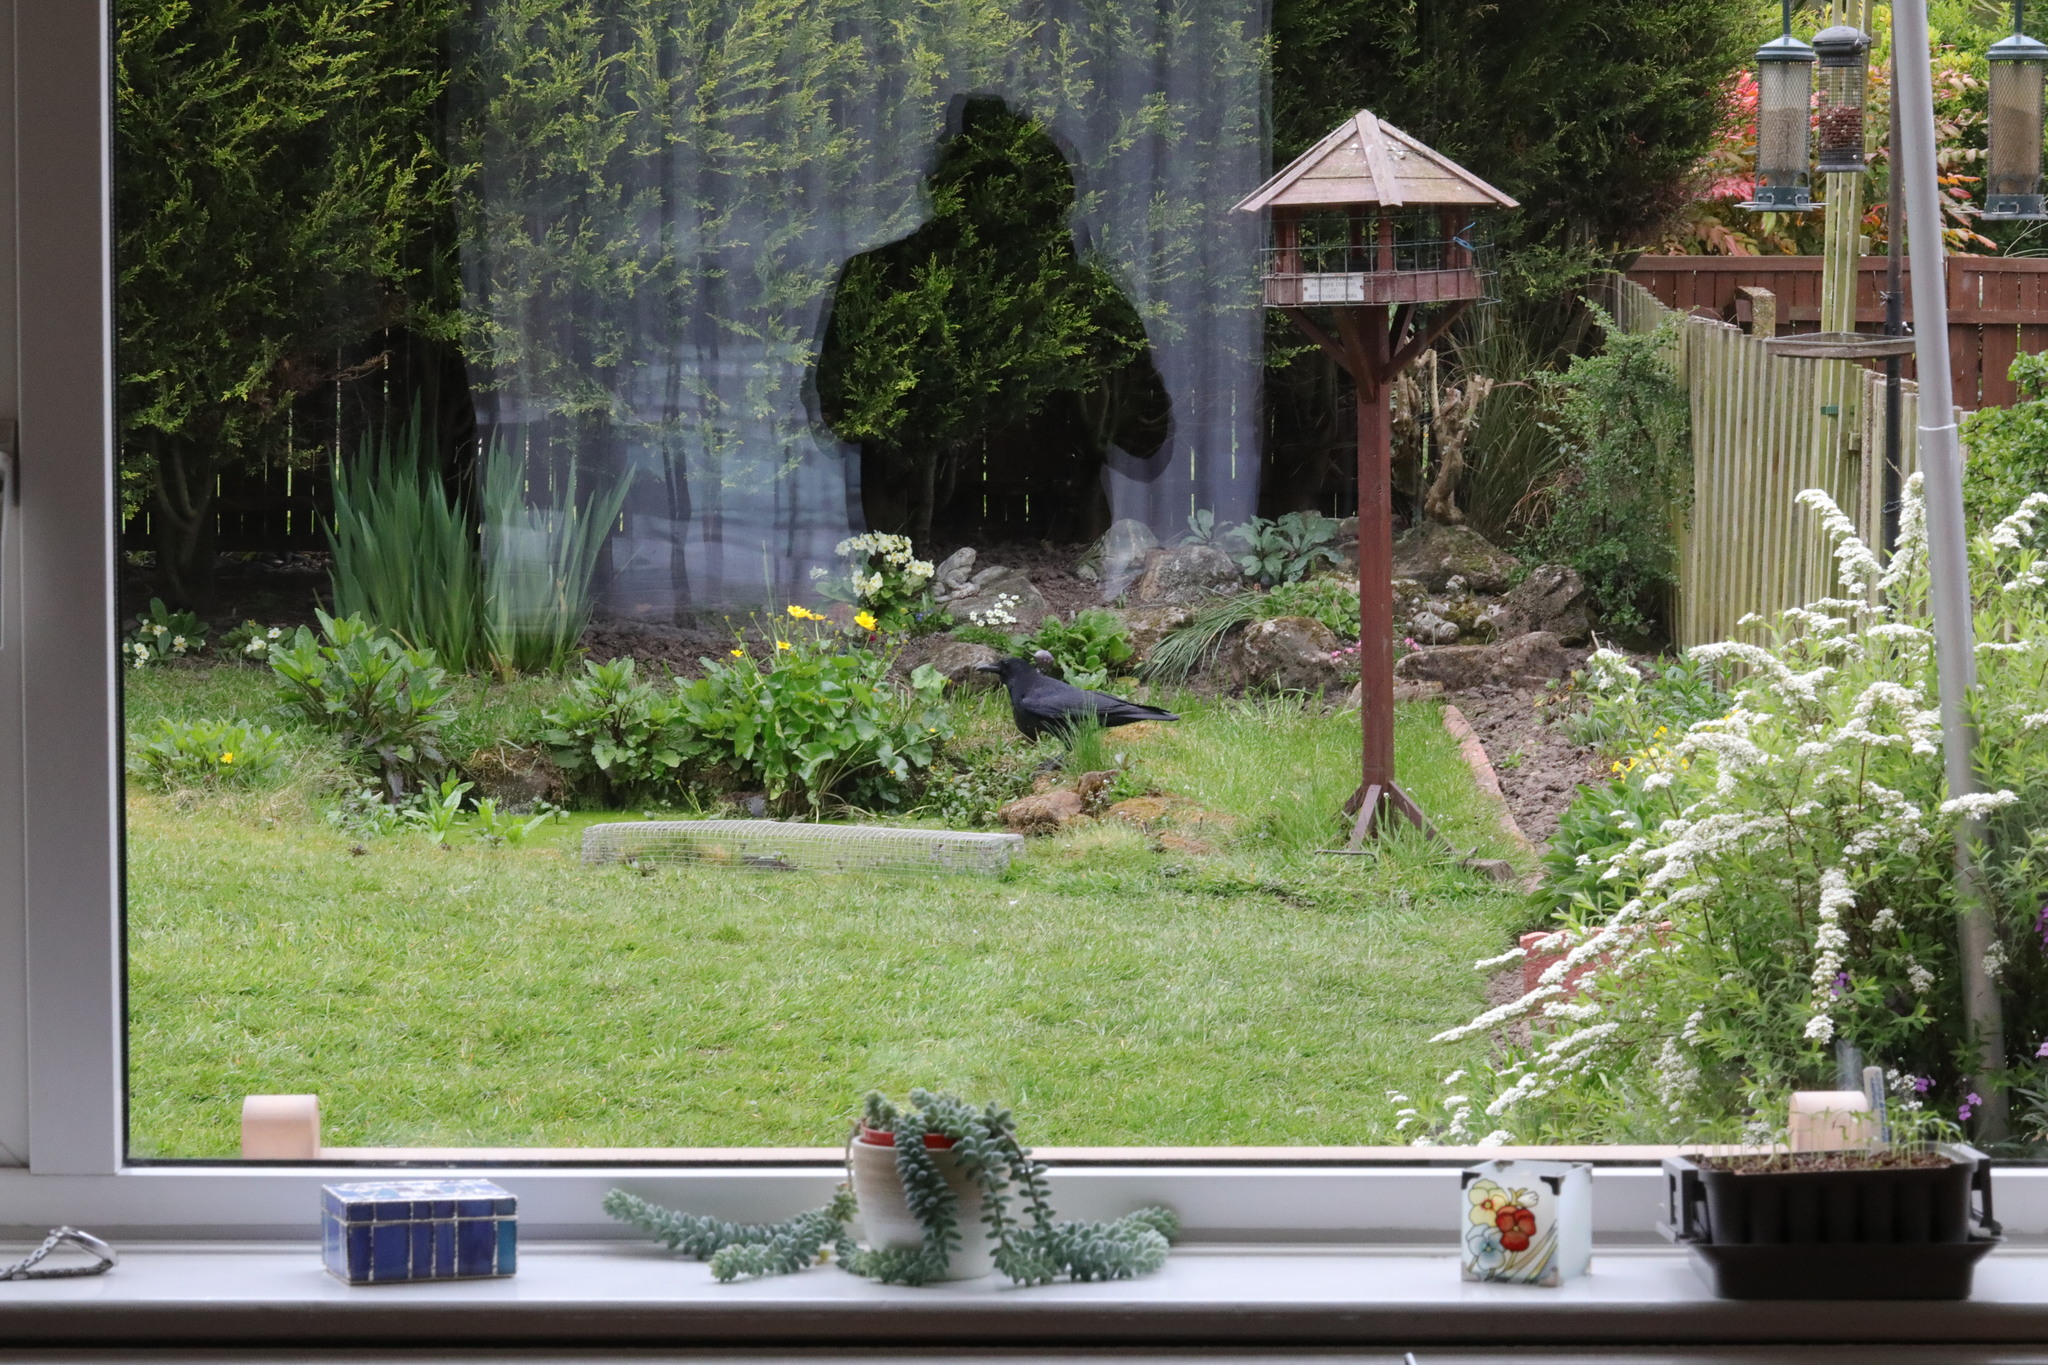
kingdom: Animalia
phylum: Chordata
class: Aves
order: Passeriformes
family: Corvidae
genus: Corvus
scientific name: Corvus corone
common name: Carrion crow
